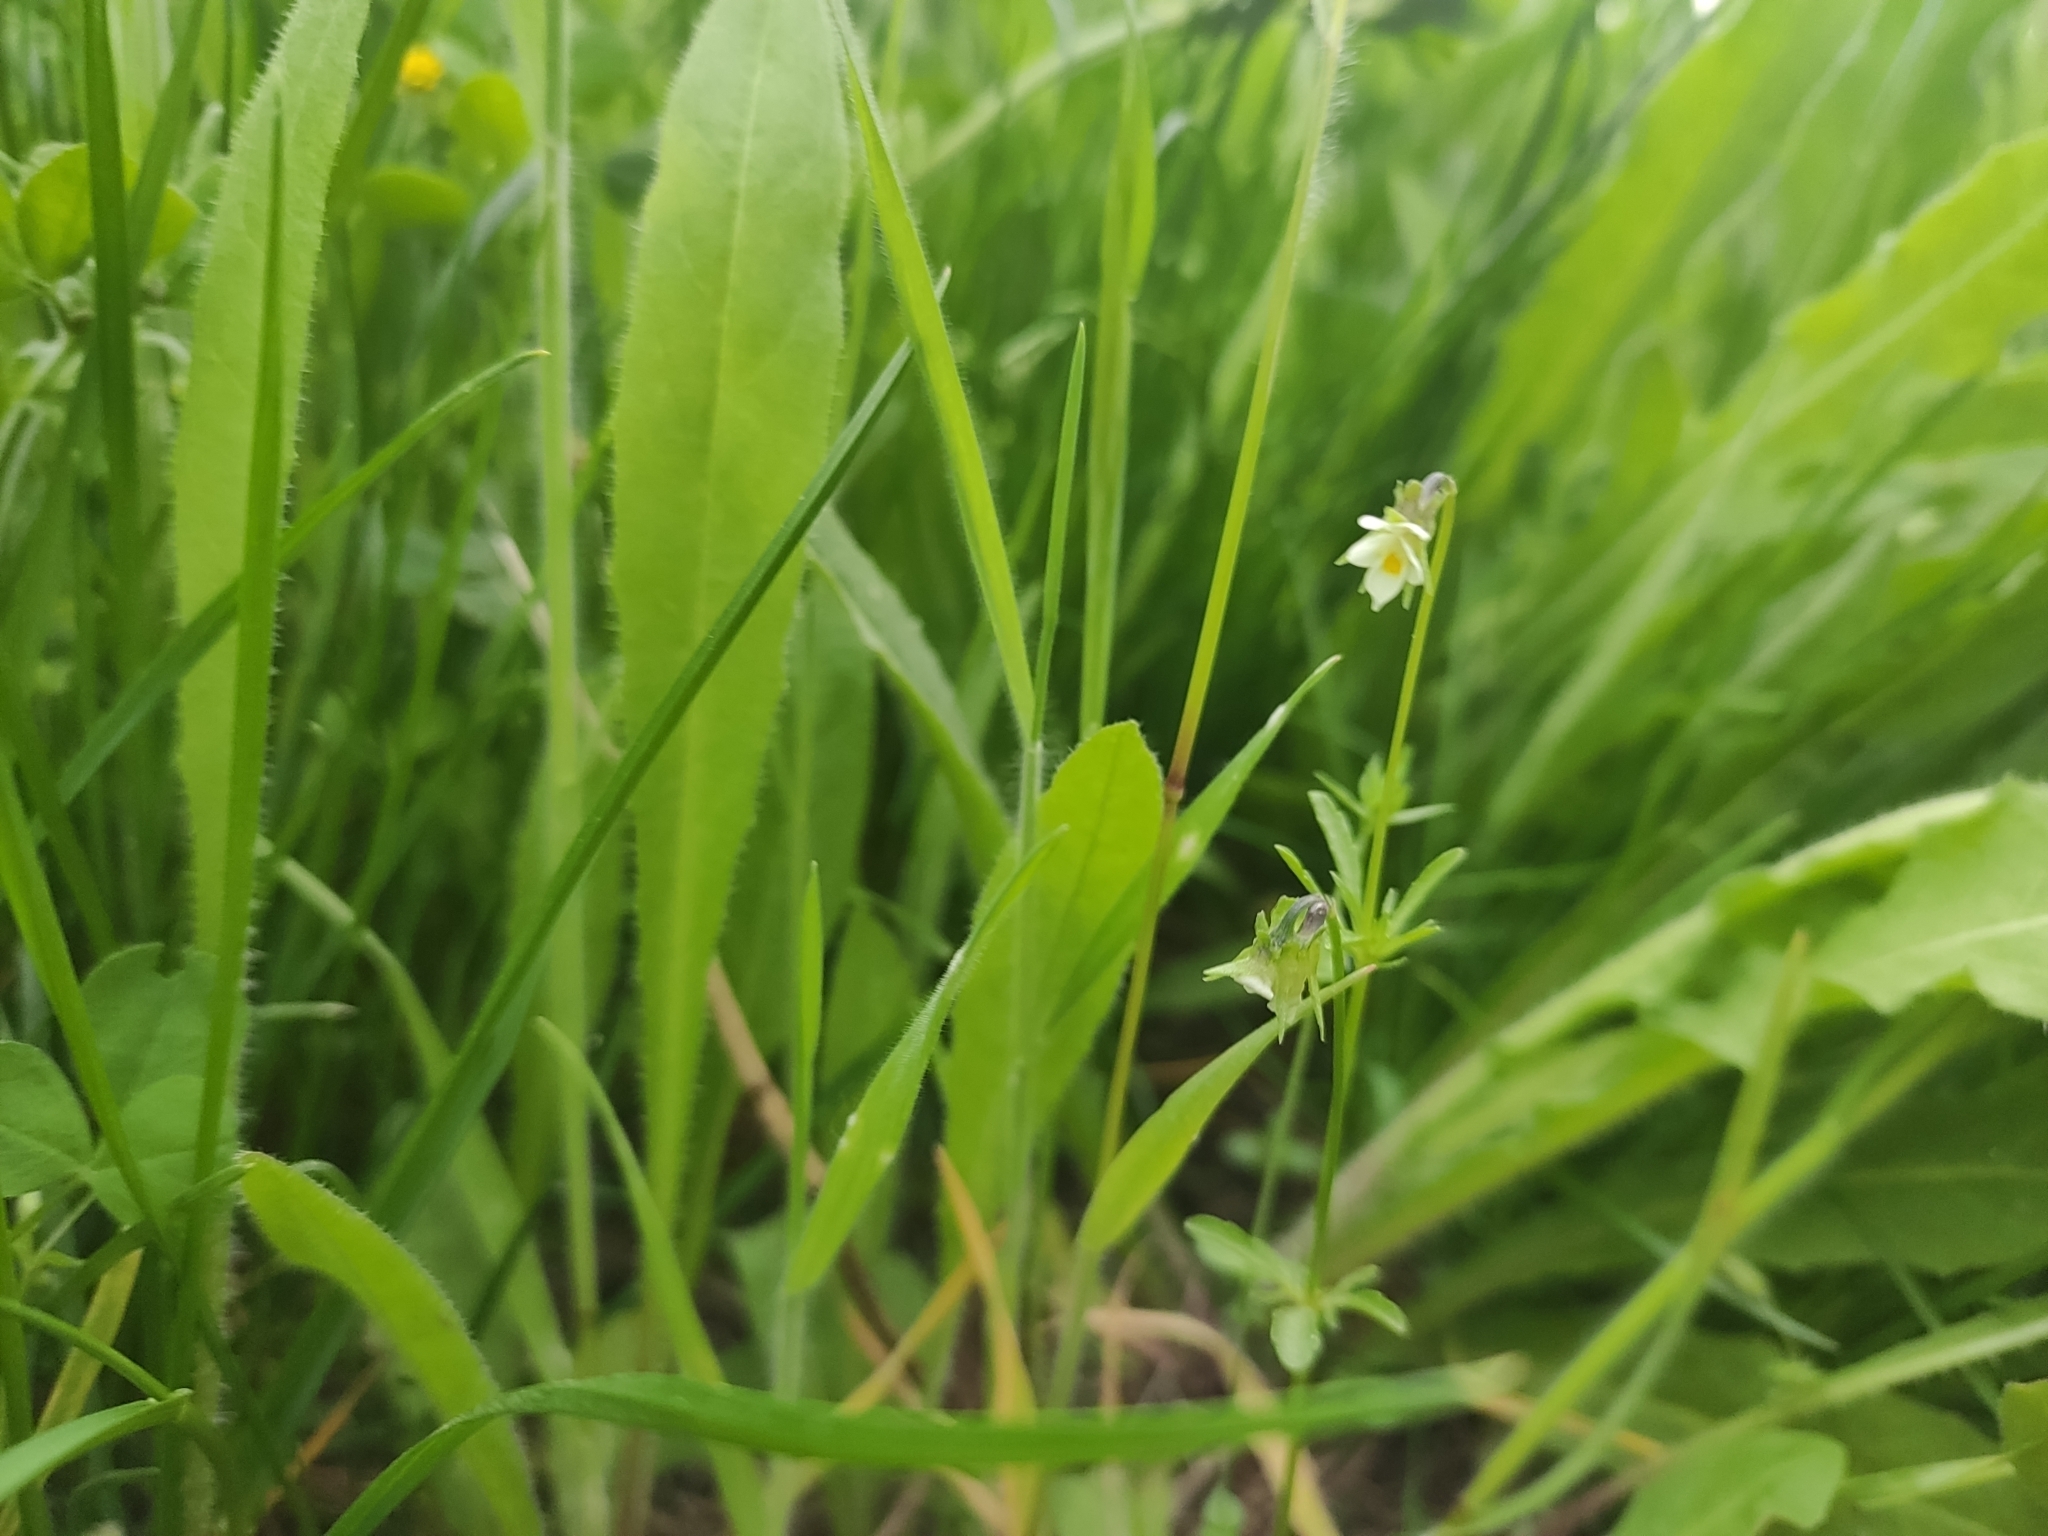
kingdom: Plantae
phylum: Tracheophyta
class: Magnoliopsida
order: Malpighiales
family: Violaceae
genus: Viola
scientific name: Viola arvensis
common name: Field pansy
